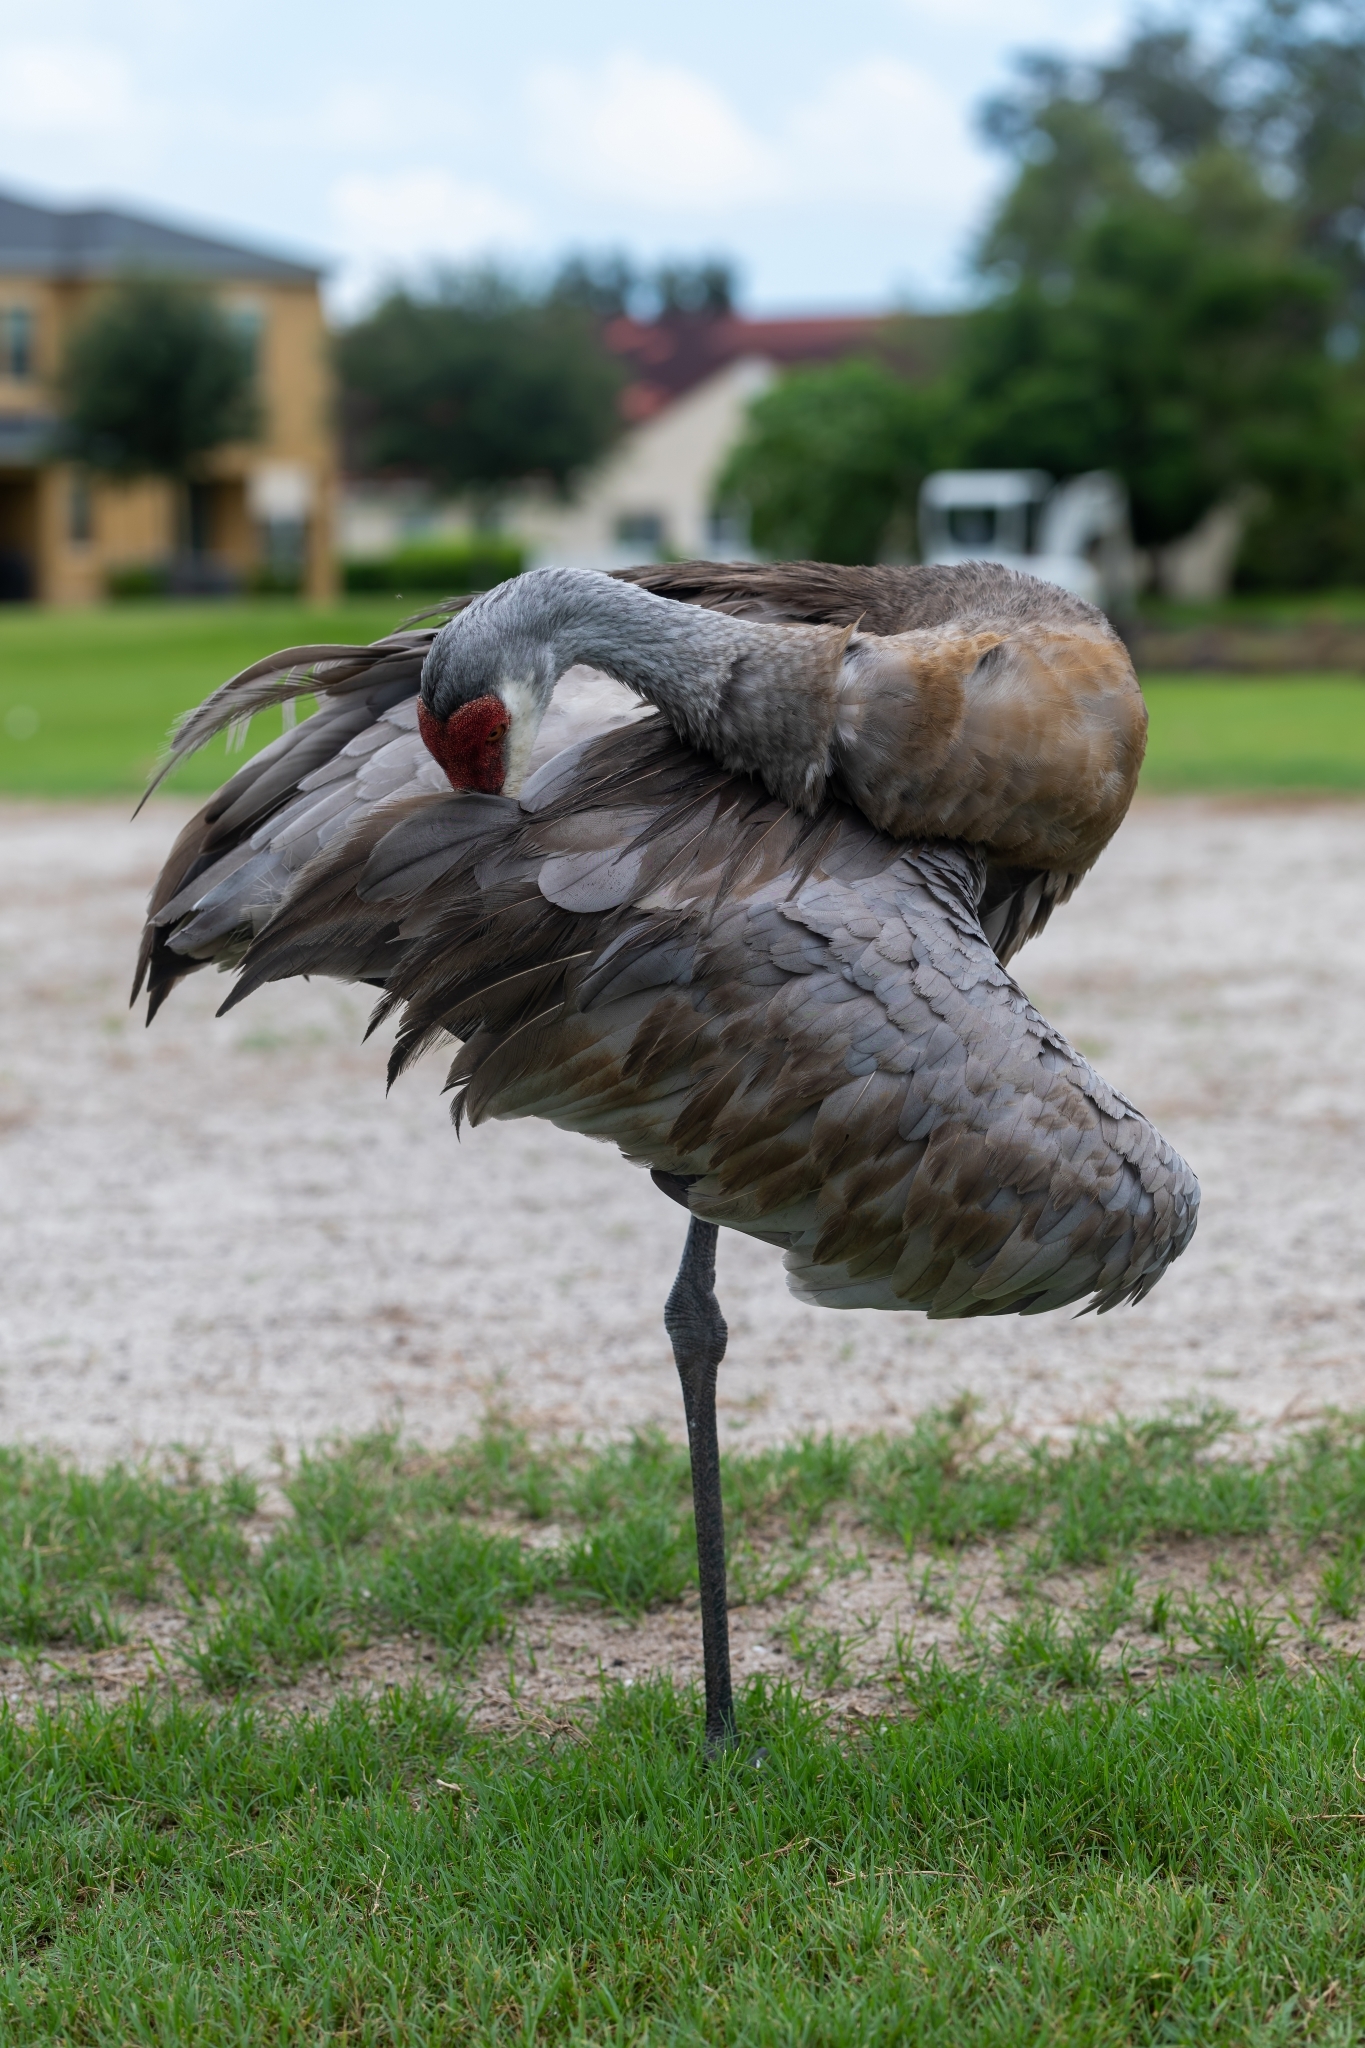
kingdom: Animalia
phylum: Chordata
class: Aves
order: Gruiformes
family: Gruidae
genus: Grus
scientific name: Grus canadensis
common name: Sandhill crane
